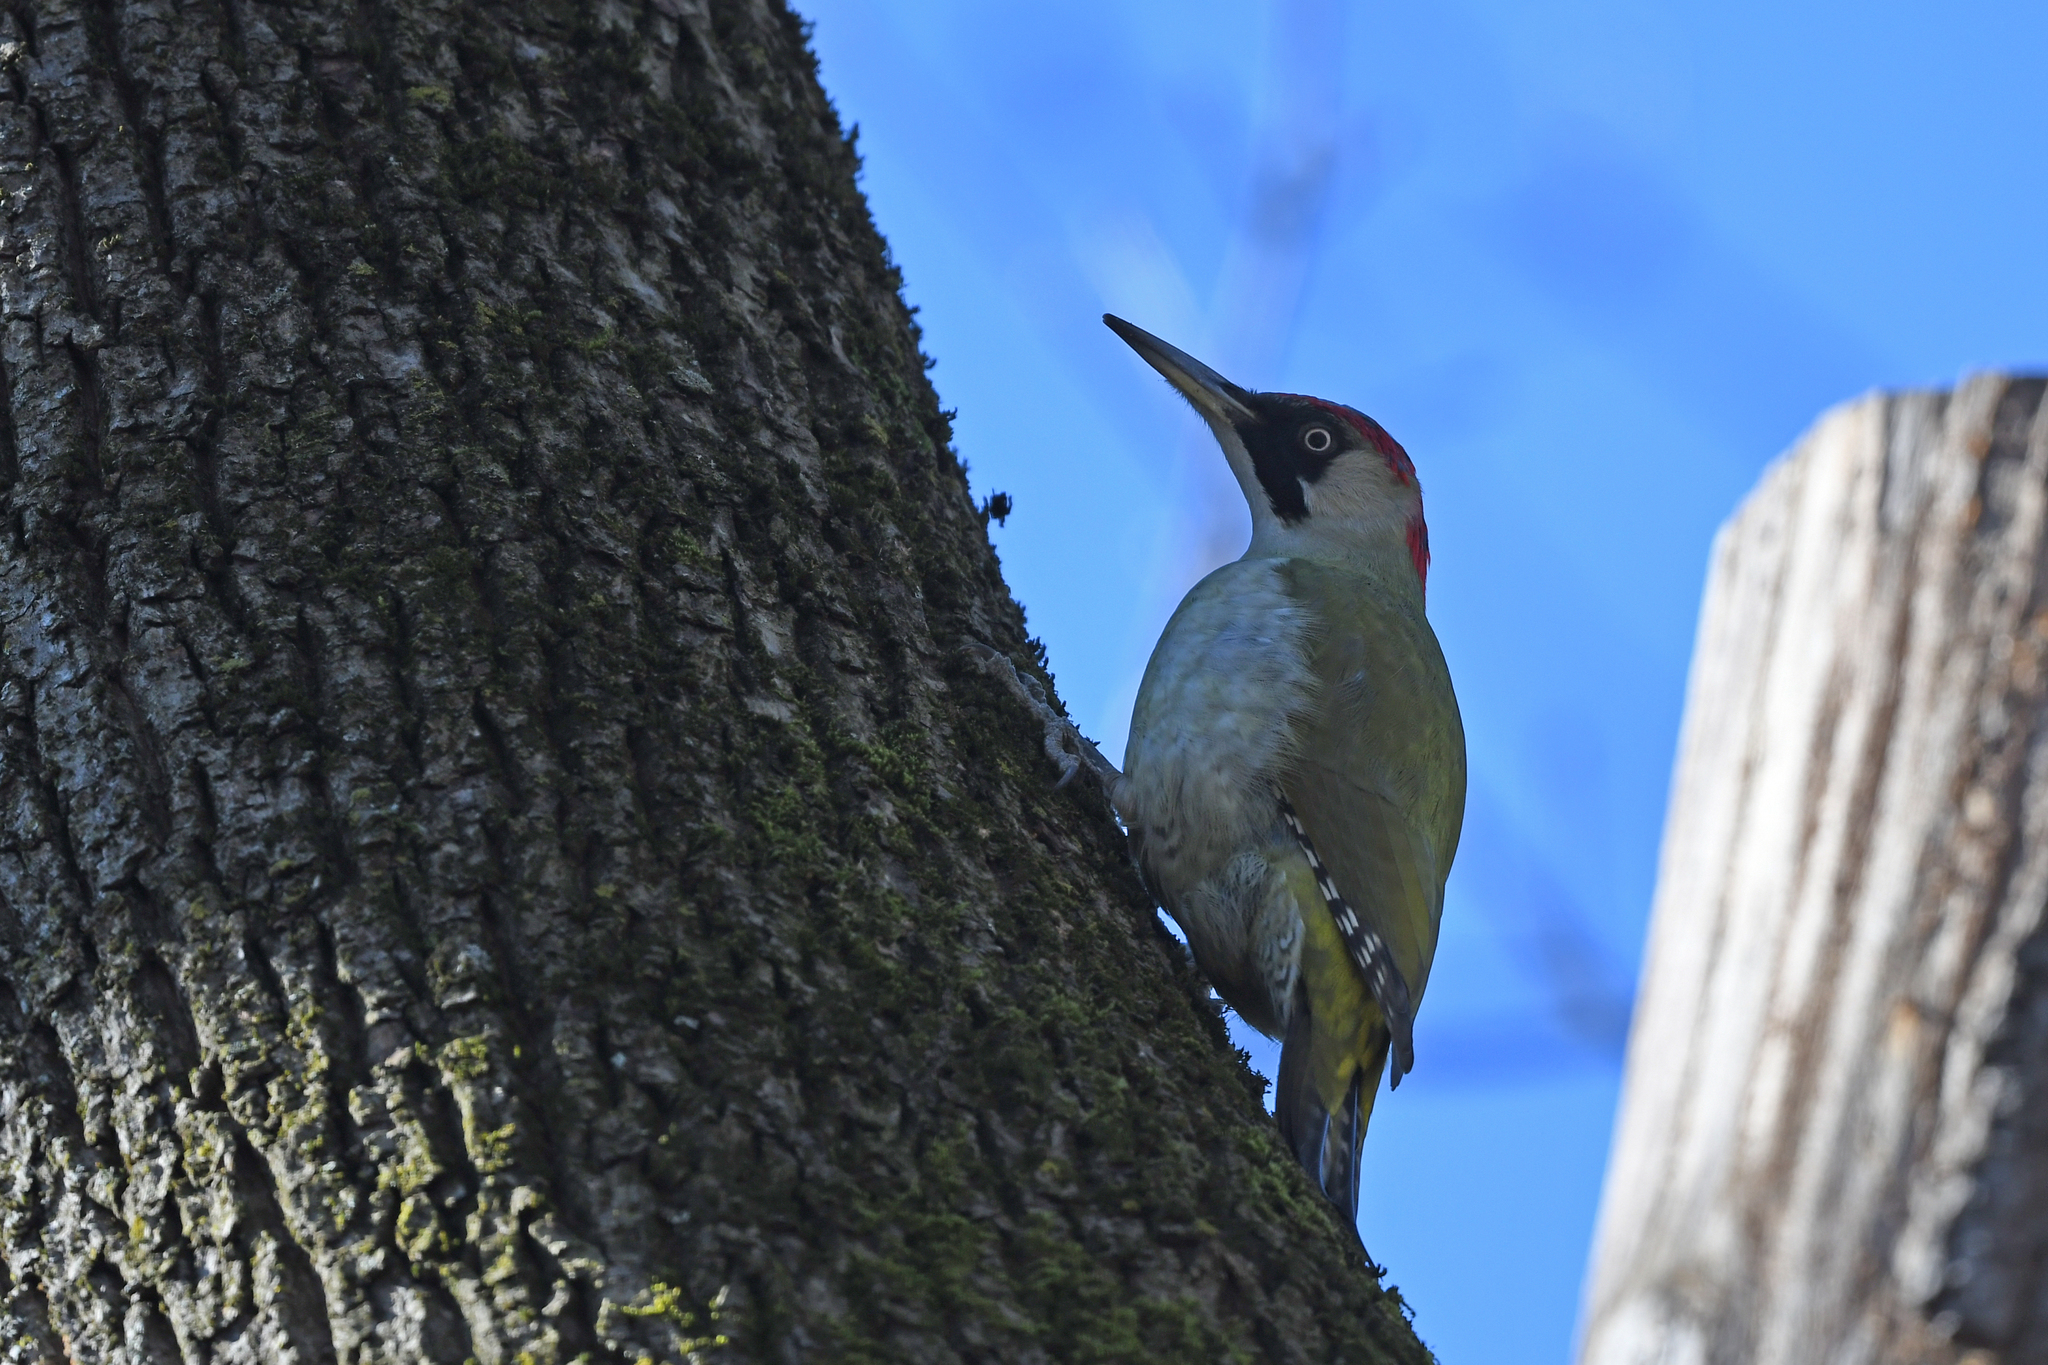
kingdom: Animalia
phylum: Chordata
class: Aves
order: Piciformes
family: Picidae
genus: Picus
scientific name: Picus viridis
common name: European green woodpecker
